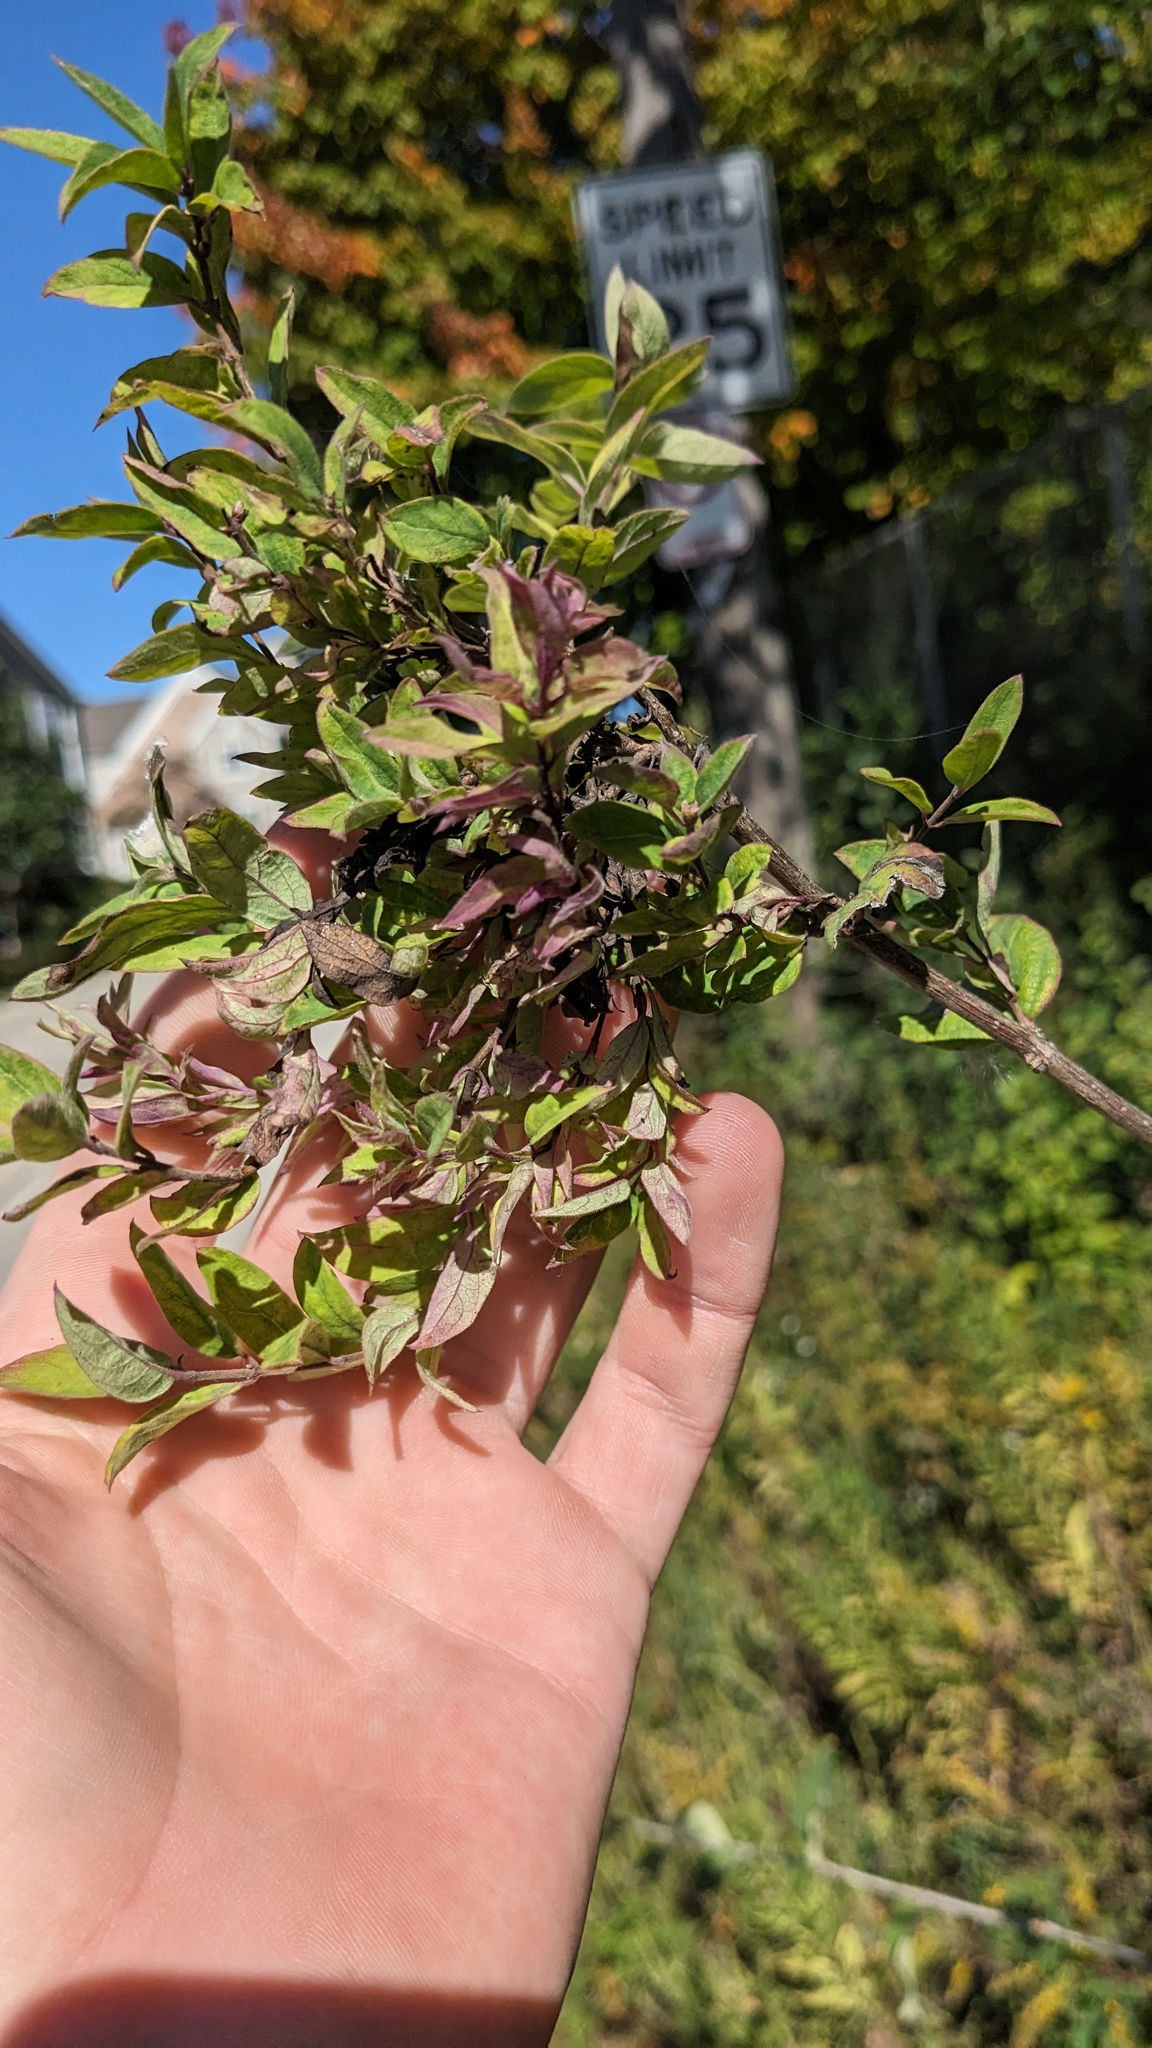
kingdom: Animalia
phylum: Arthropoda
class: Insecta
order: Hemiptera
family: Aphididae
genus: Hyadaphis
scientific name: Hyadaphis tataricae
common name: Honeysuckle witches' broom aphid
